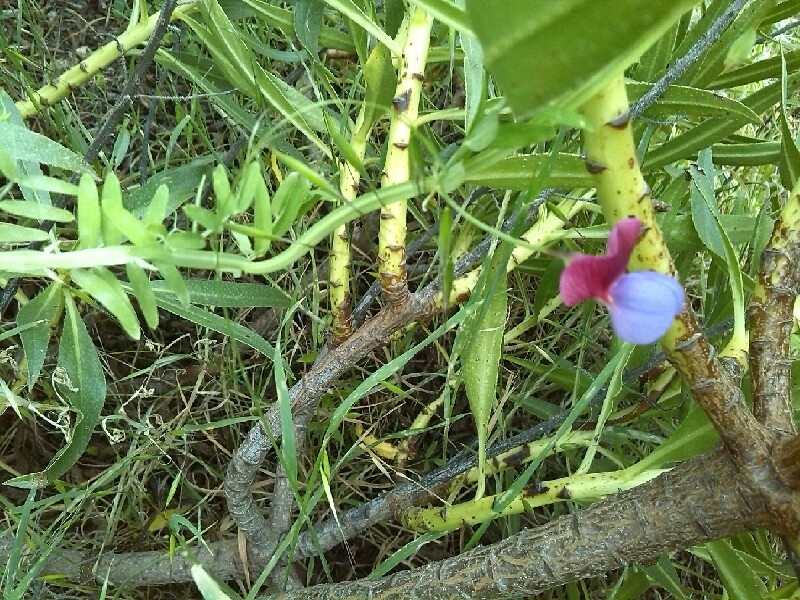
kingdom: Plantae
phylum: Tracheophyta
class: Magnoliopsida
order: Fabales
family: Fabaceae
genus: Lathyrus
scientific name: Lathyrus clymenum
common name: Spanish vetchling
